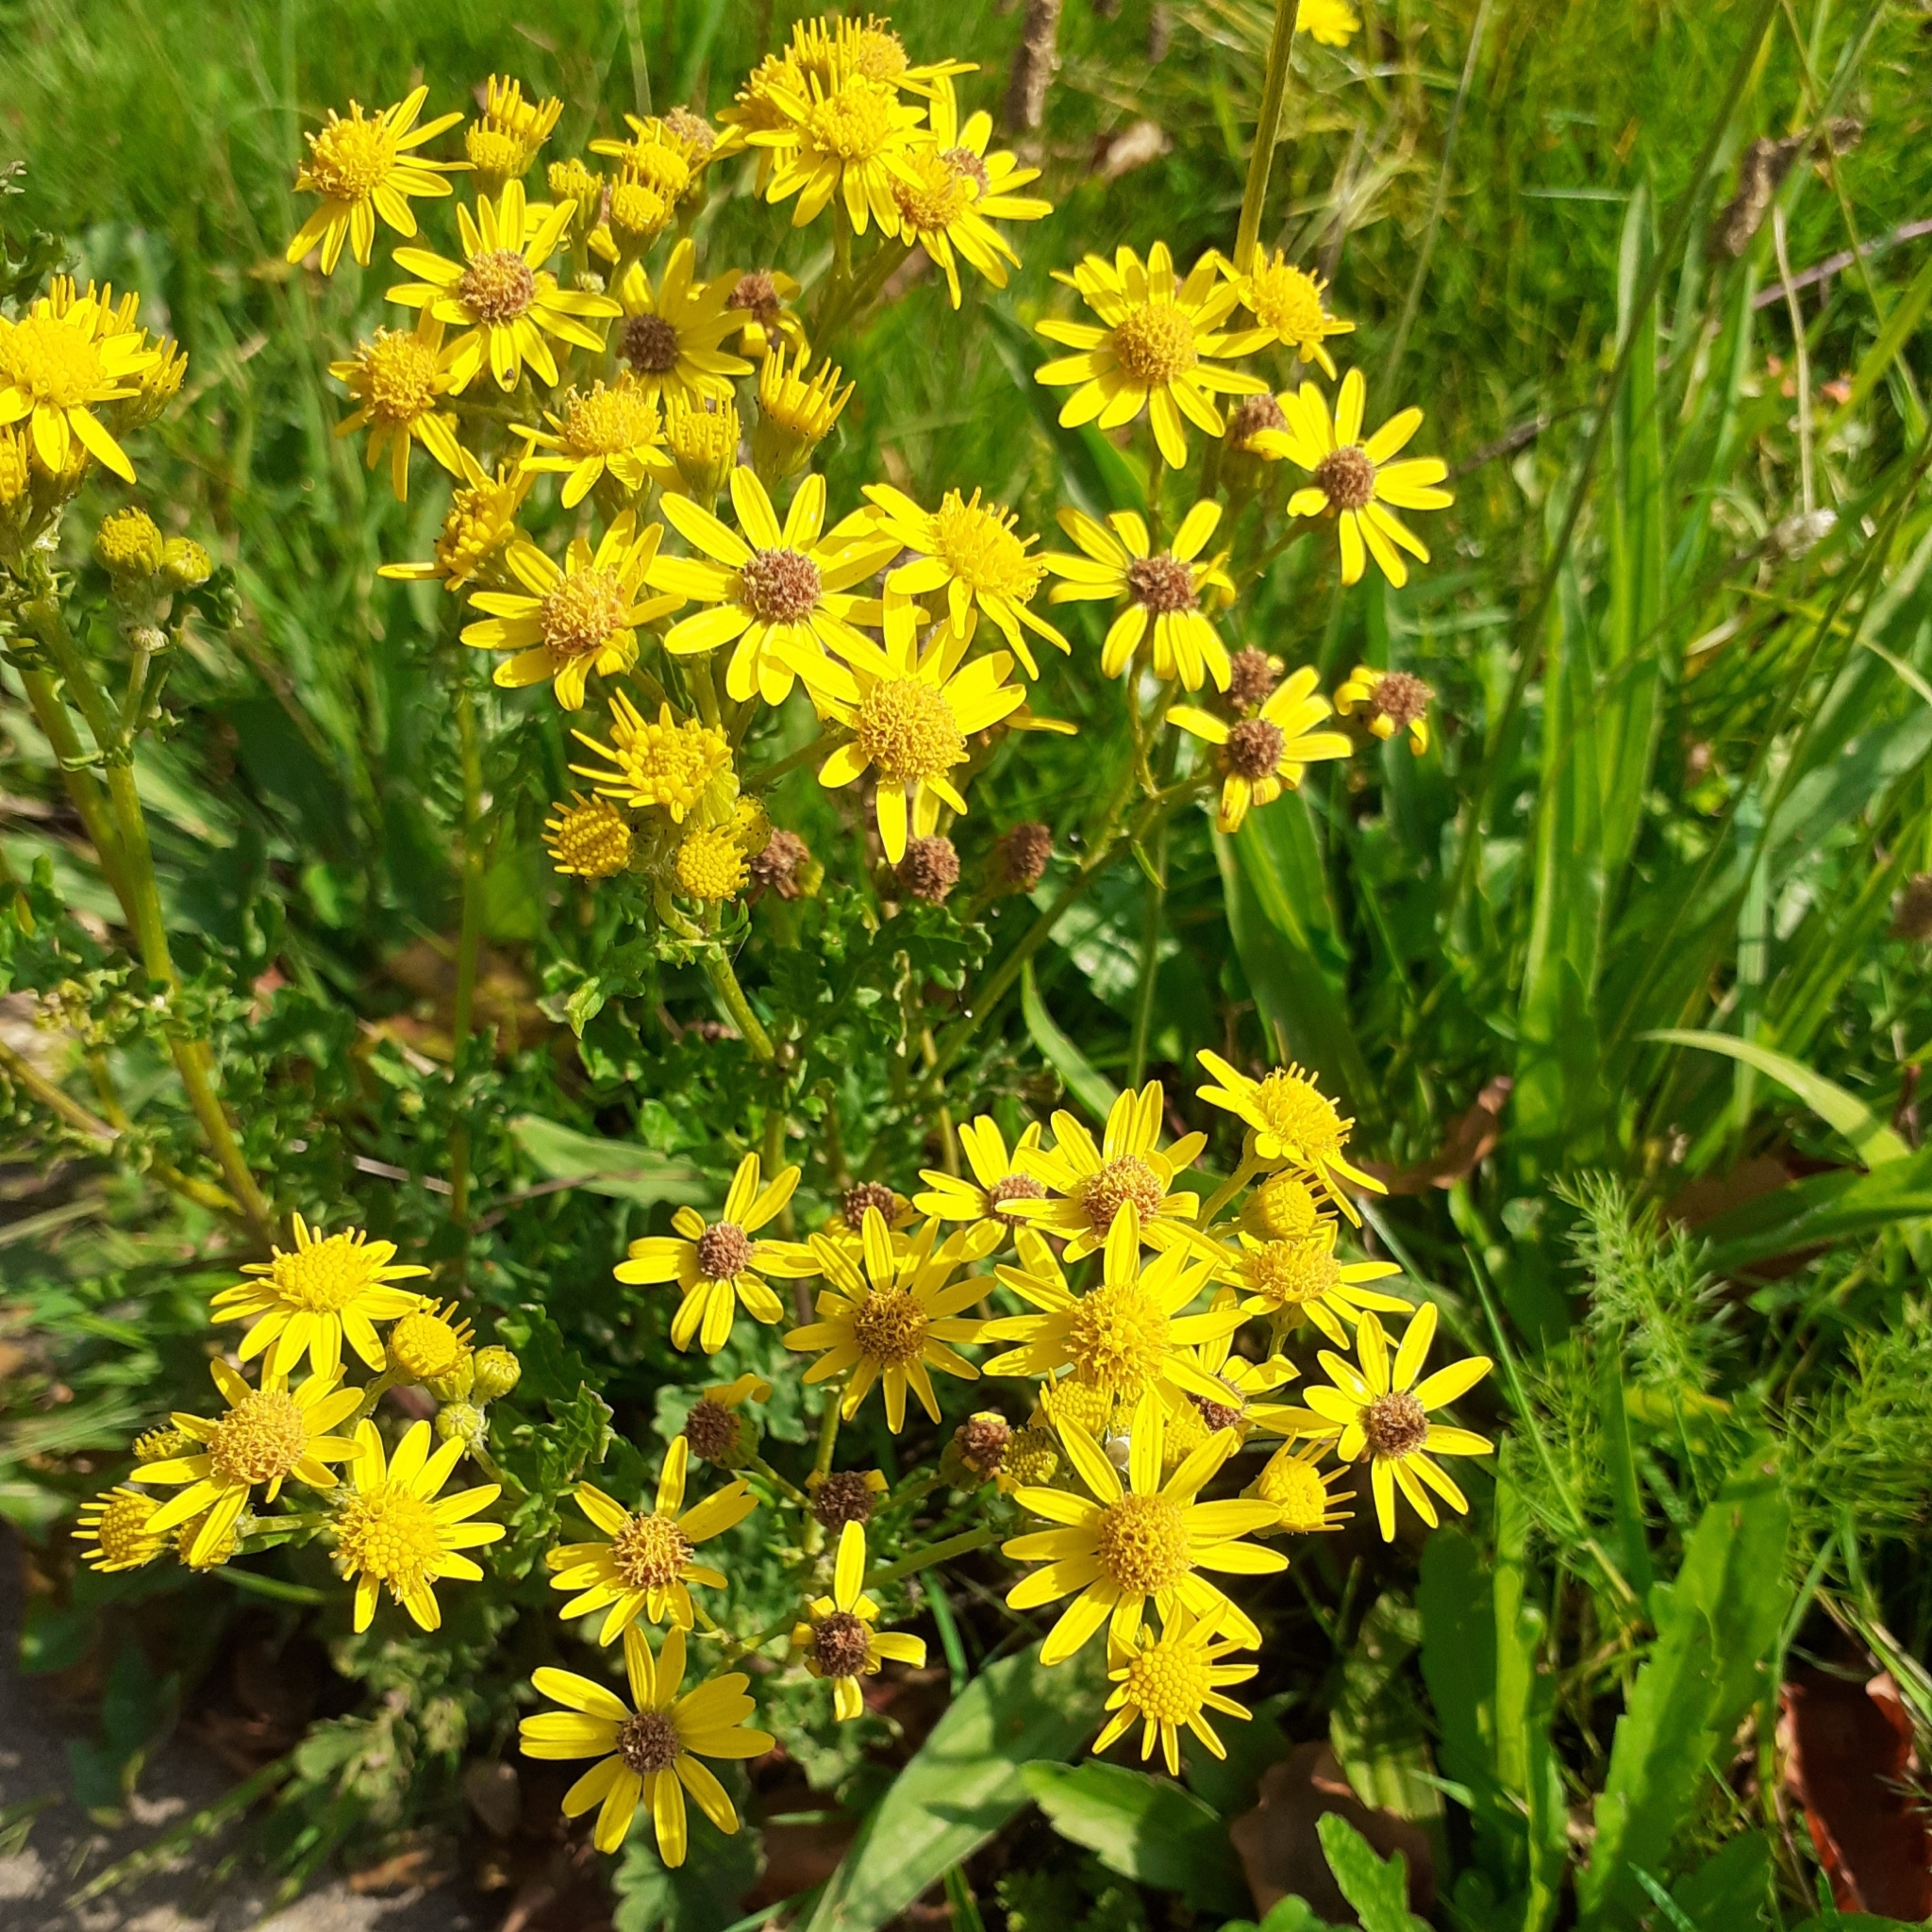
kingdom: Plantae
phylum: Tracheophyta
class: Magnoliopsida
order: Asterales
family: Asteraceae
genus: Jacobaea
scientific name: Jacobaea vulgaris
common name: Stinking willie
